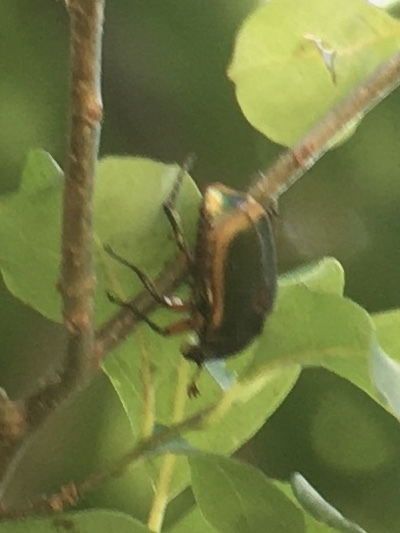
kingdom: Animalia
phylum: Arthropoda
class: Insecta
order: Coleoptera
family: Scarabaeidae
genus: Cotinis
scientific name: Cotinis nitida
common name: Common green june beetle
